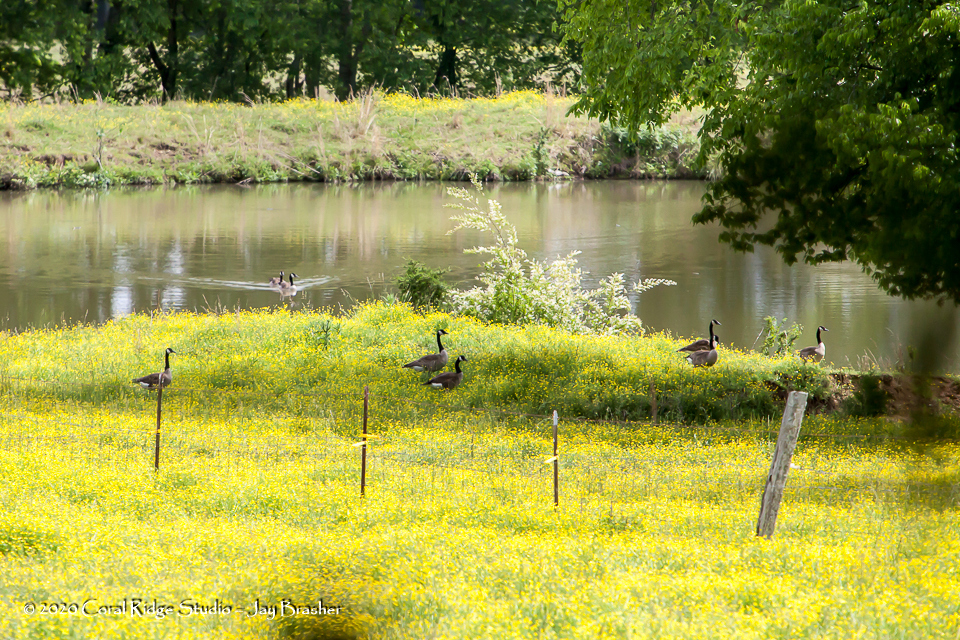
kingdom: Animalia
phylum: Chordata
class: Aves
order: Anseriformes
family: Anatidae
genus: Branta
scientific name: Branta canadensis
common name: Canada goose
